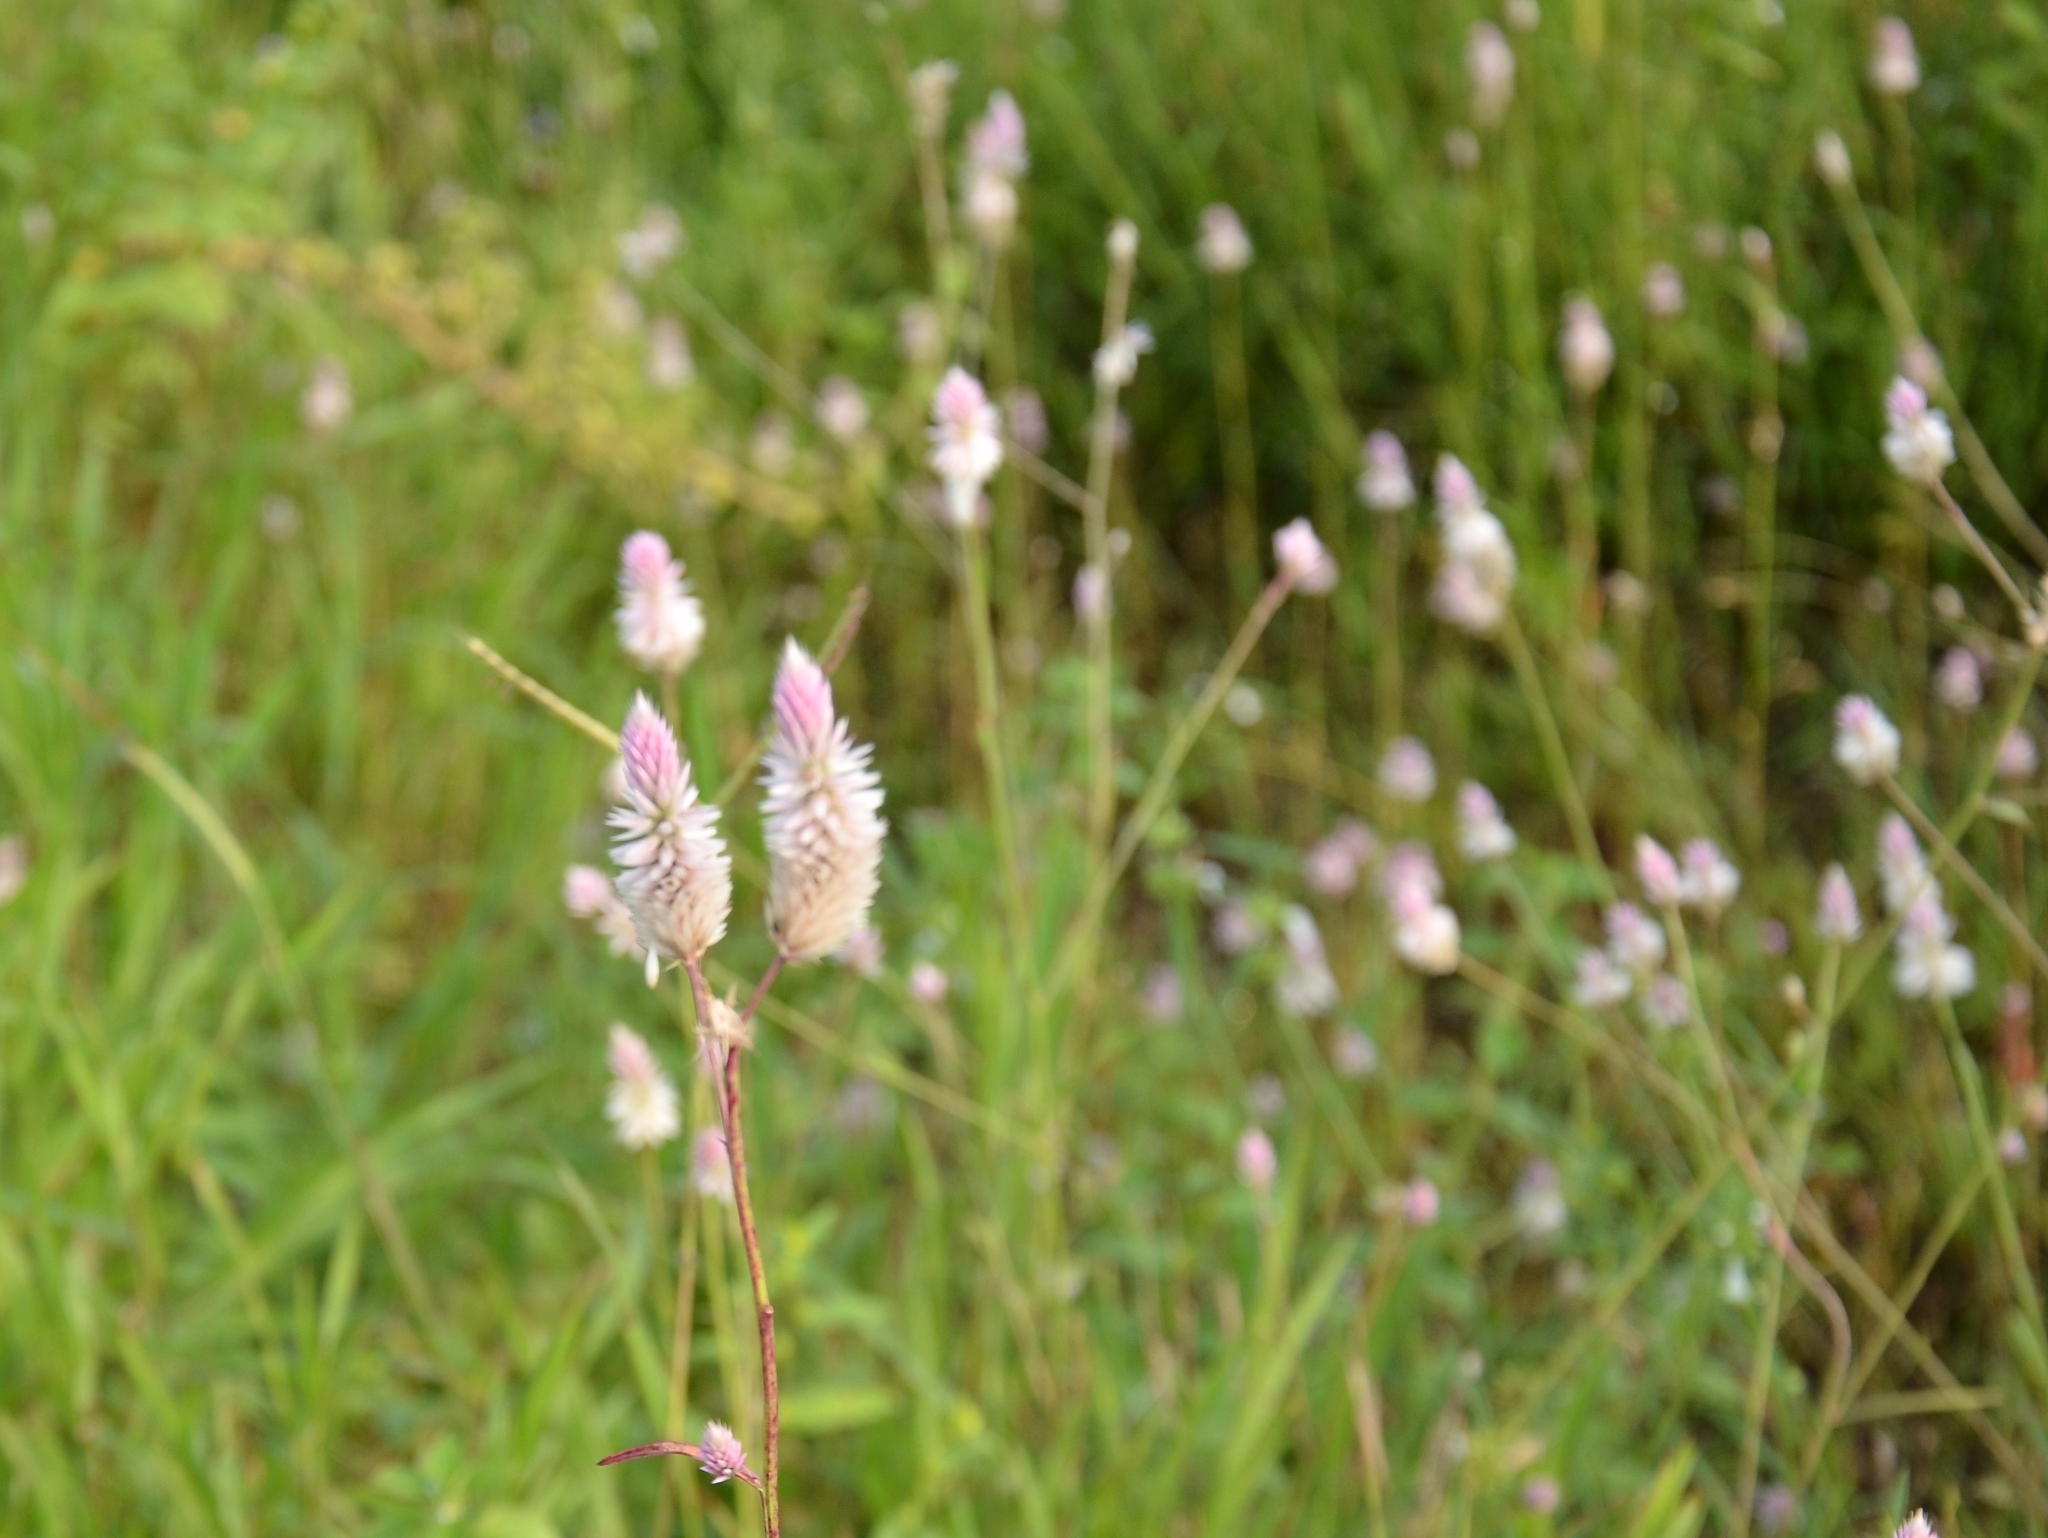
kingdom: Plantae
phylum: Tracheophyta
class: Magnoliopsida
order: Caryophyllales
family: Amaranthaceae
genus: Celosia
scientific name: Celosia argentea
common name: Feather cockscomb
